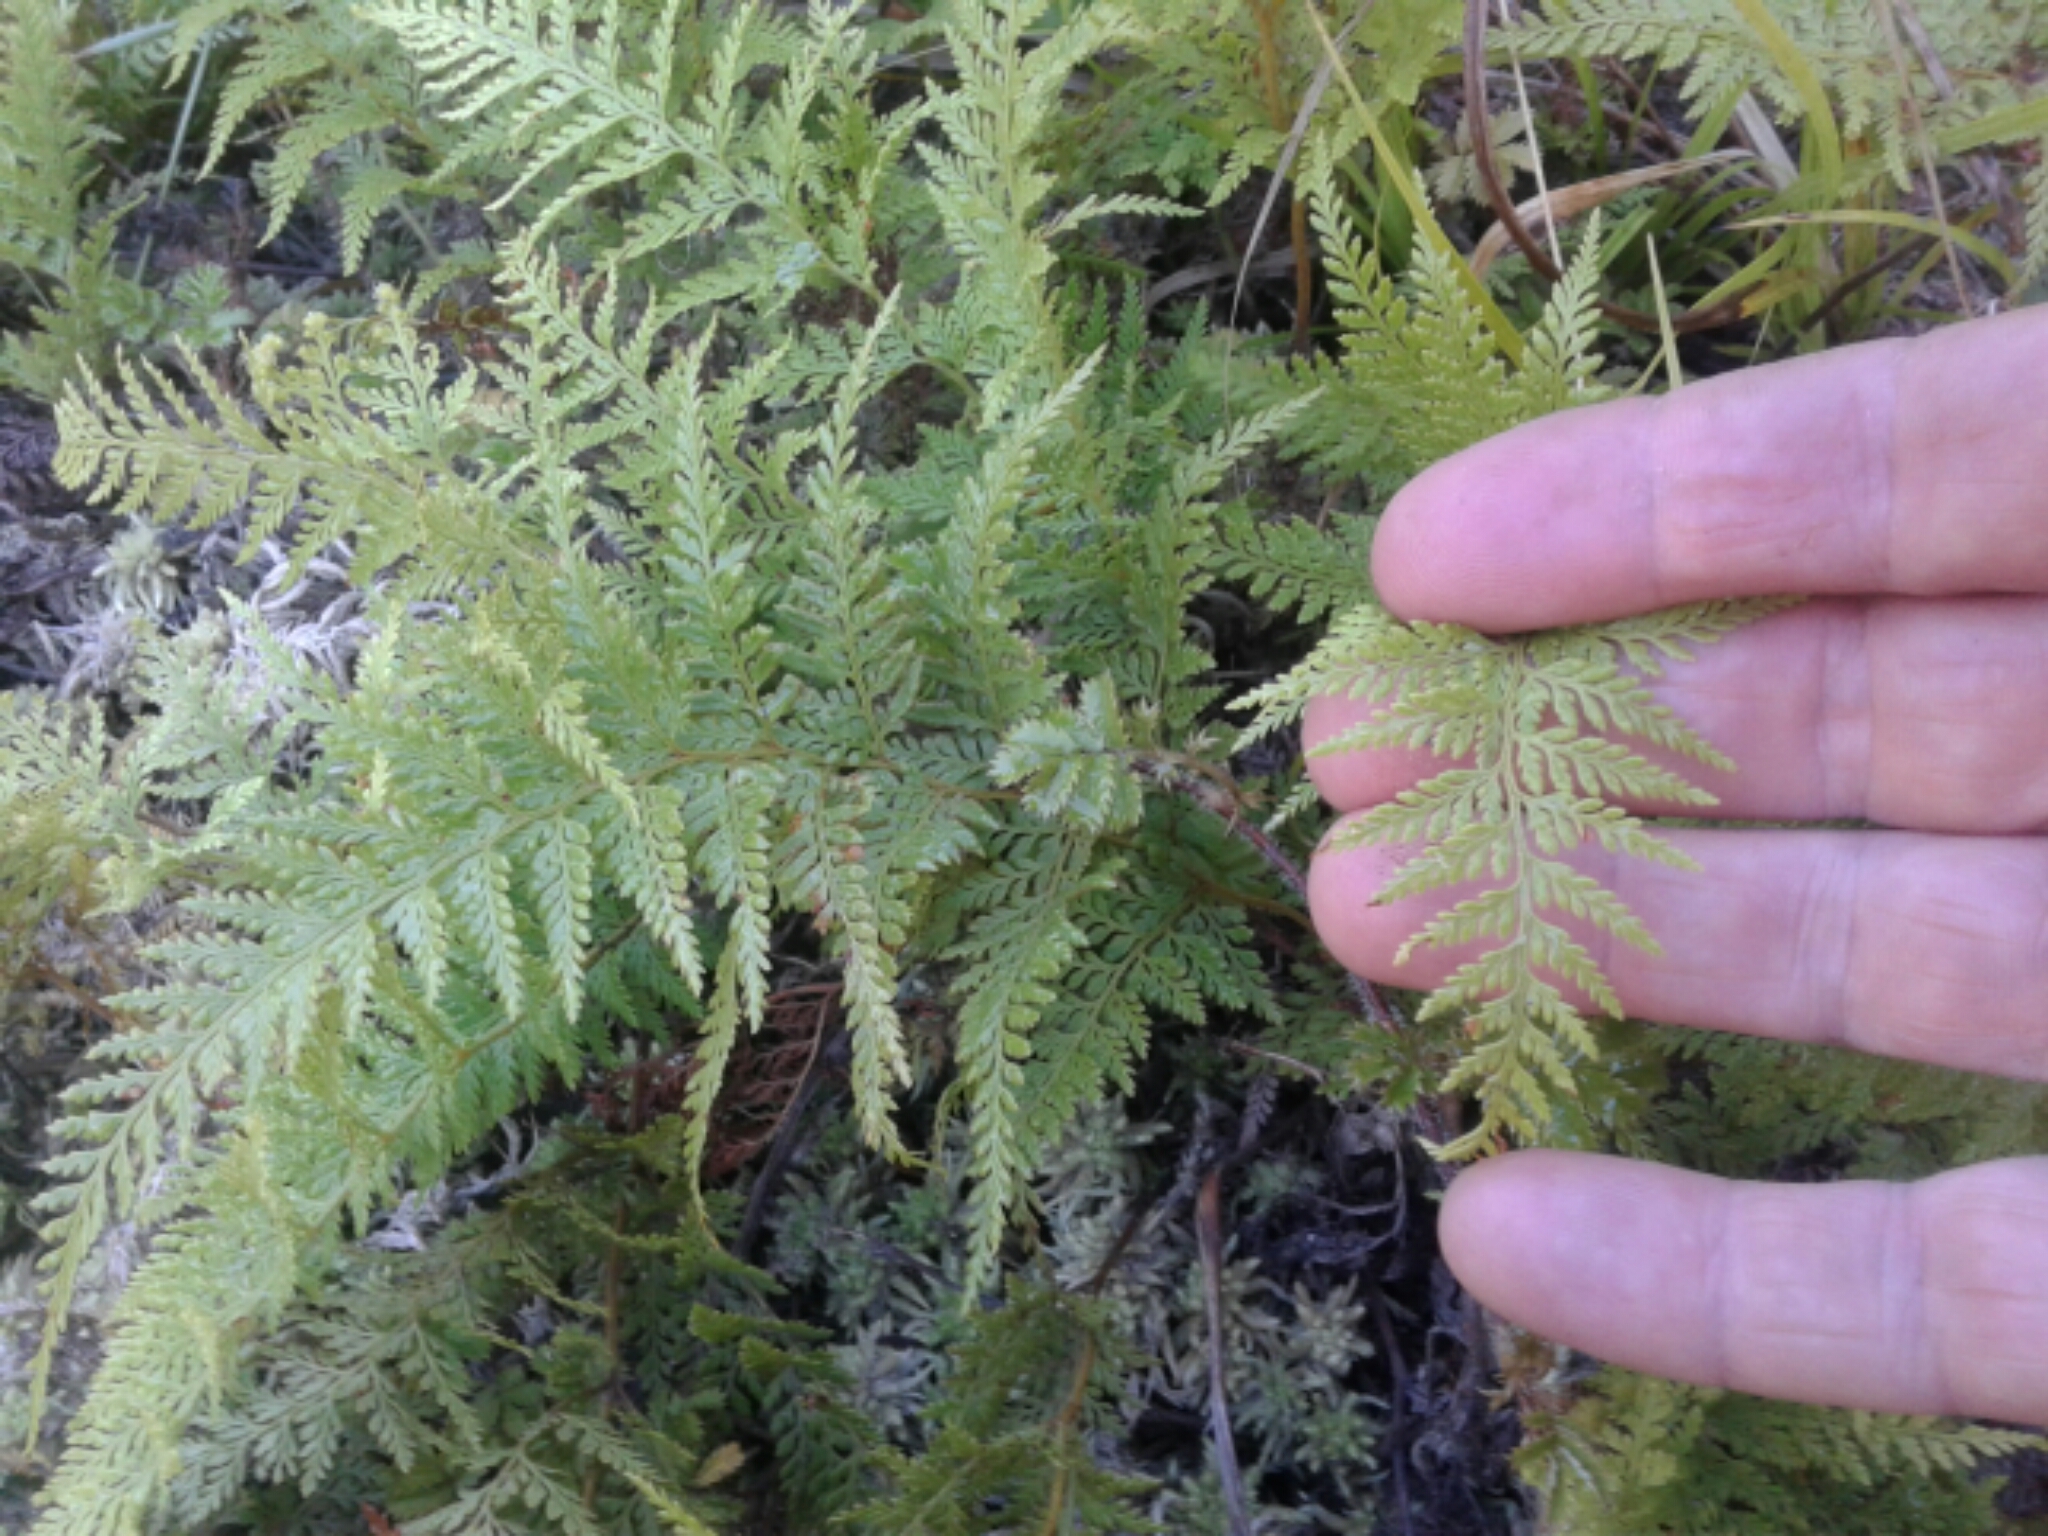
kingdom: Plantae
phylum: Tracheophyta
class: Polypodiopsida
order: Polypodiales
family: Dennstaedtiaceae
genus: Paesia
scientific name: Paesia scaberula
